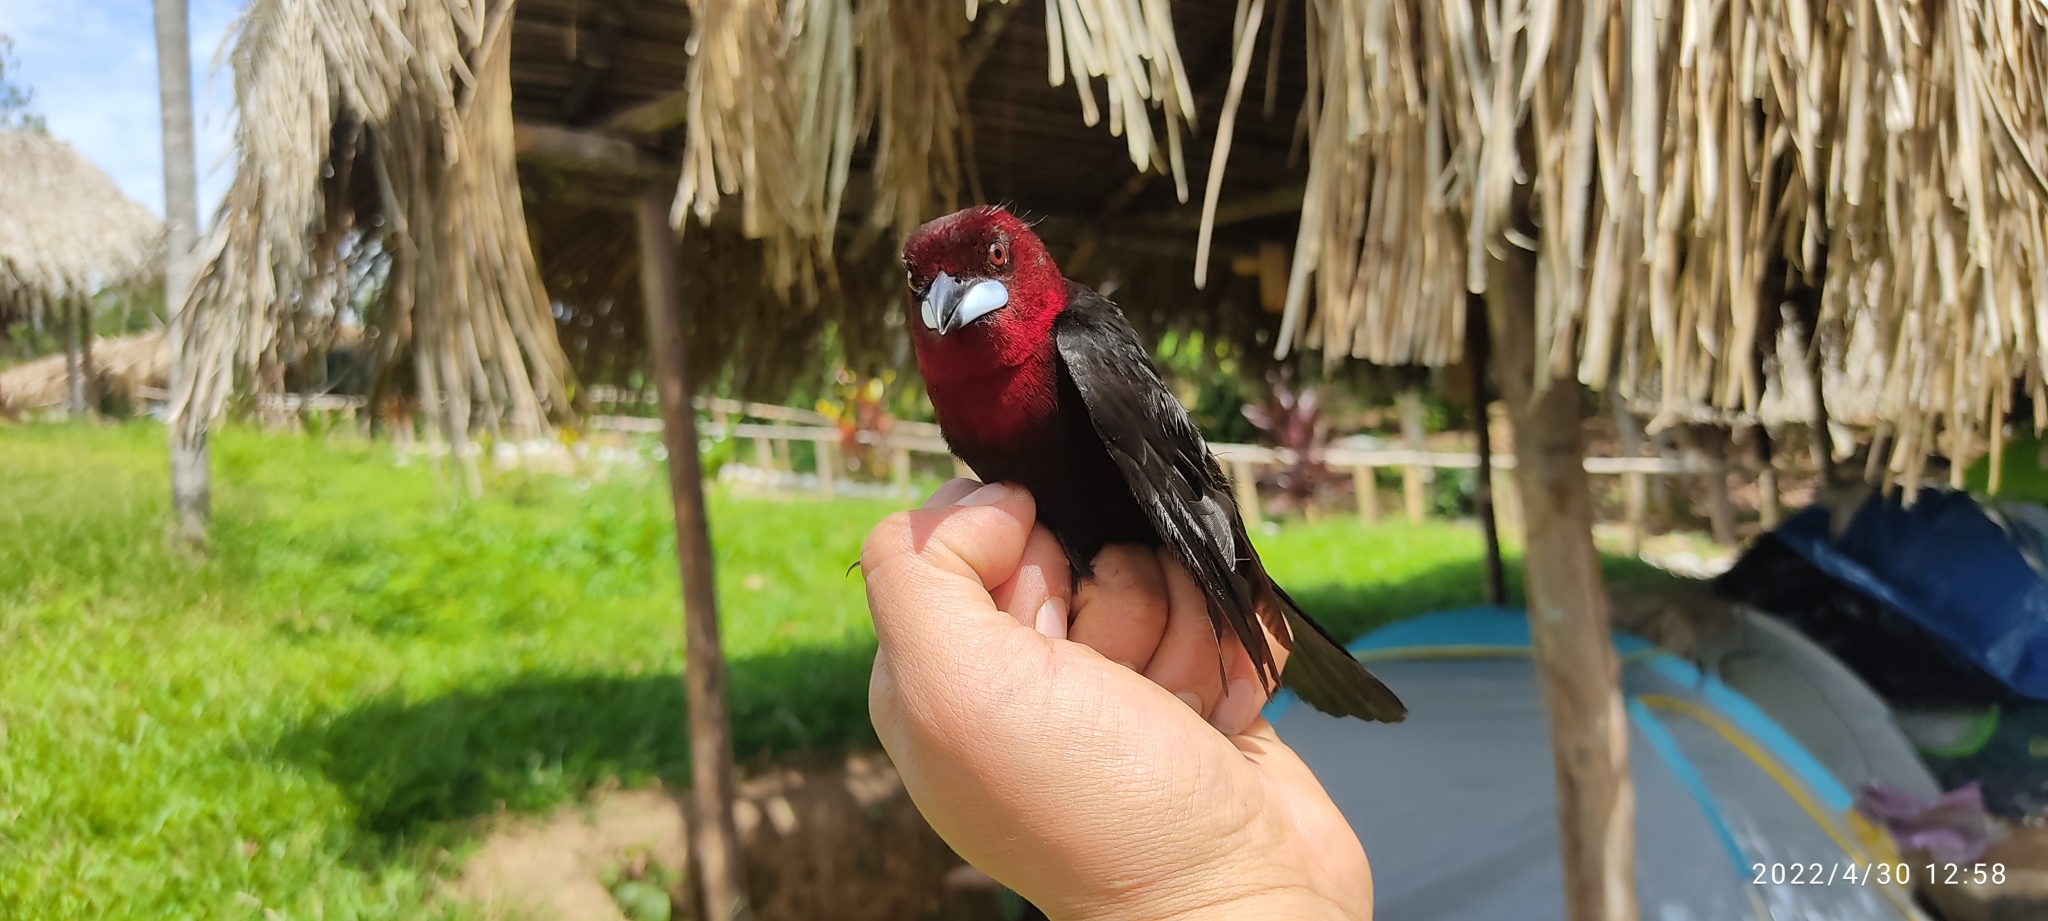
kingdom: Animalia
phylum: Chordata
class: Aves
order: Passeriformes
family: Thraupidae
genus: Ramphocelus
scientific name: Ramphocelus carbo
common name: Silver-beaked tanager
